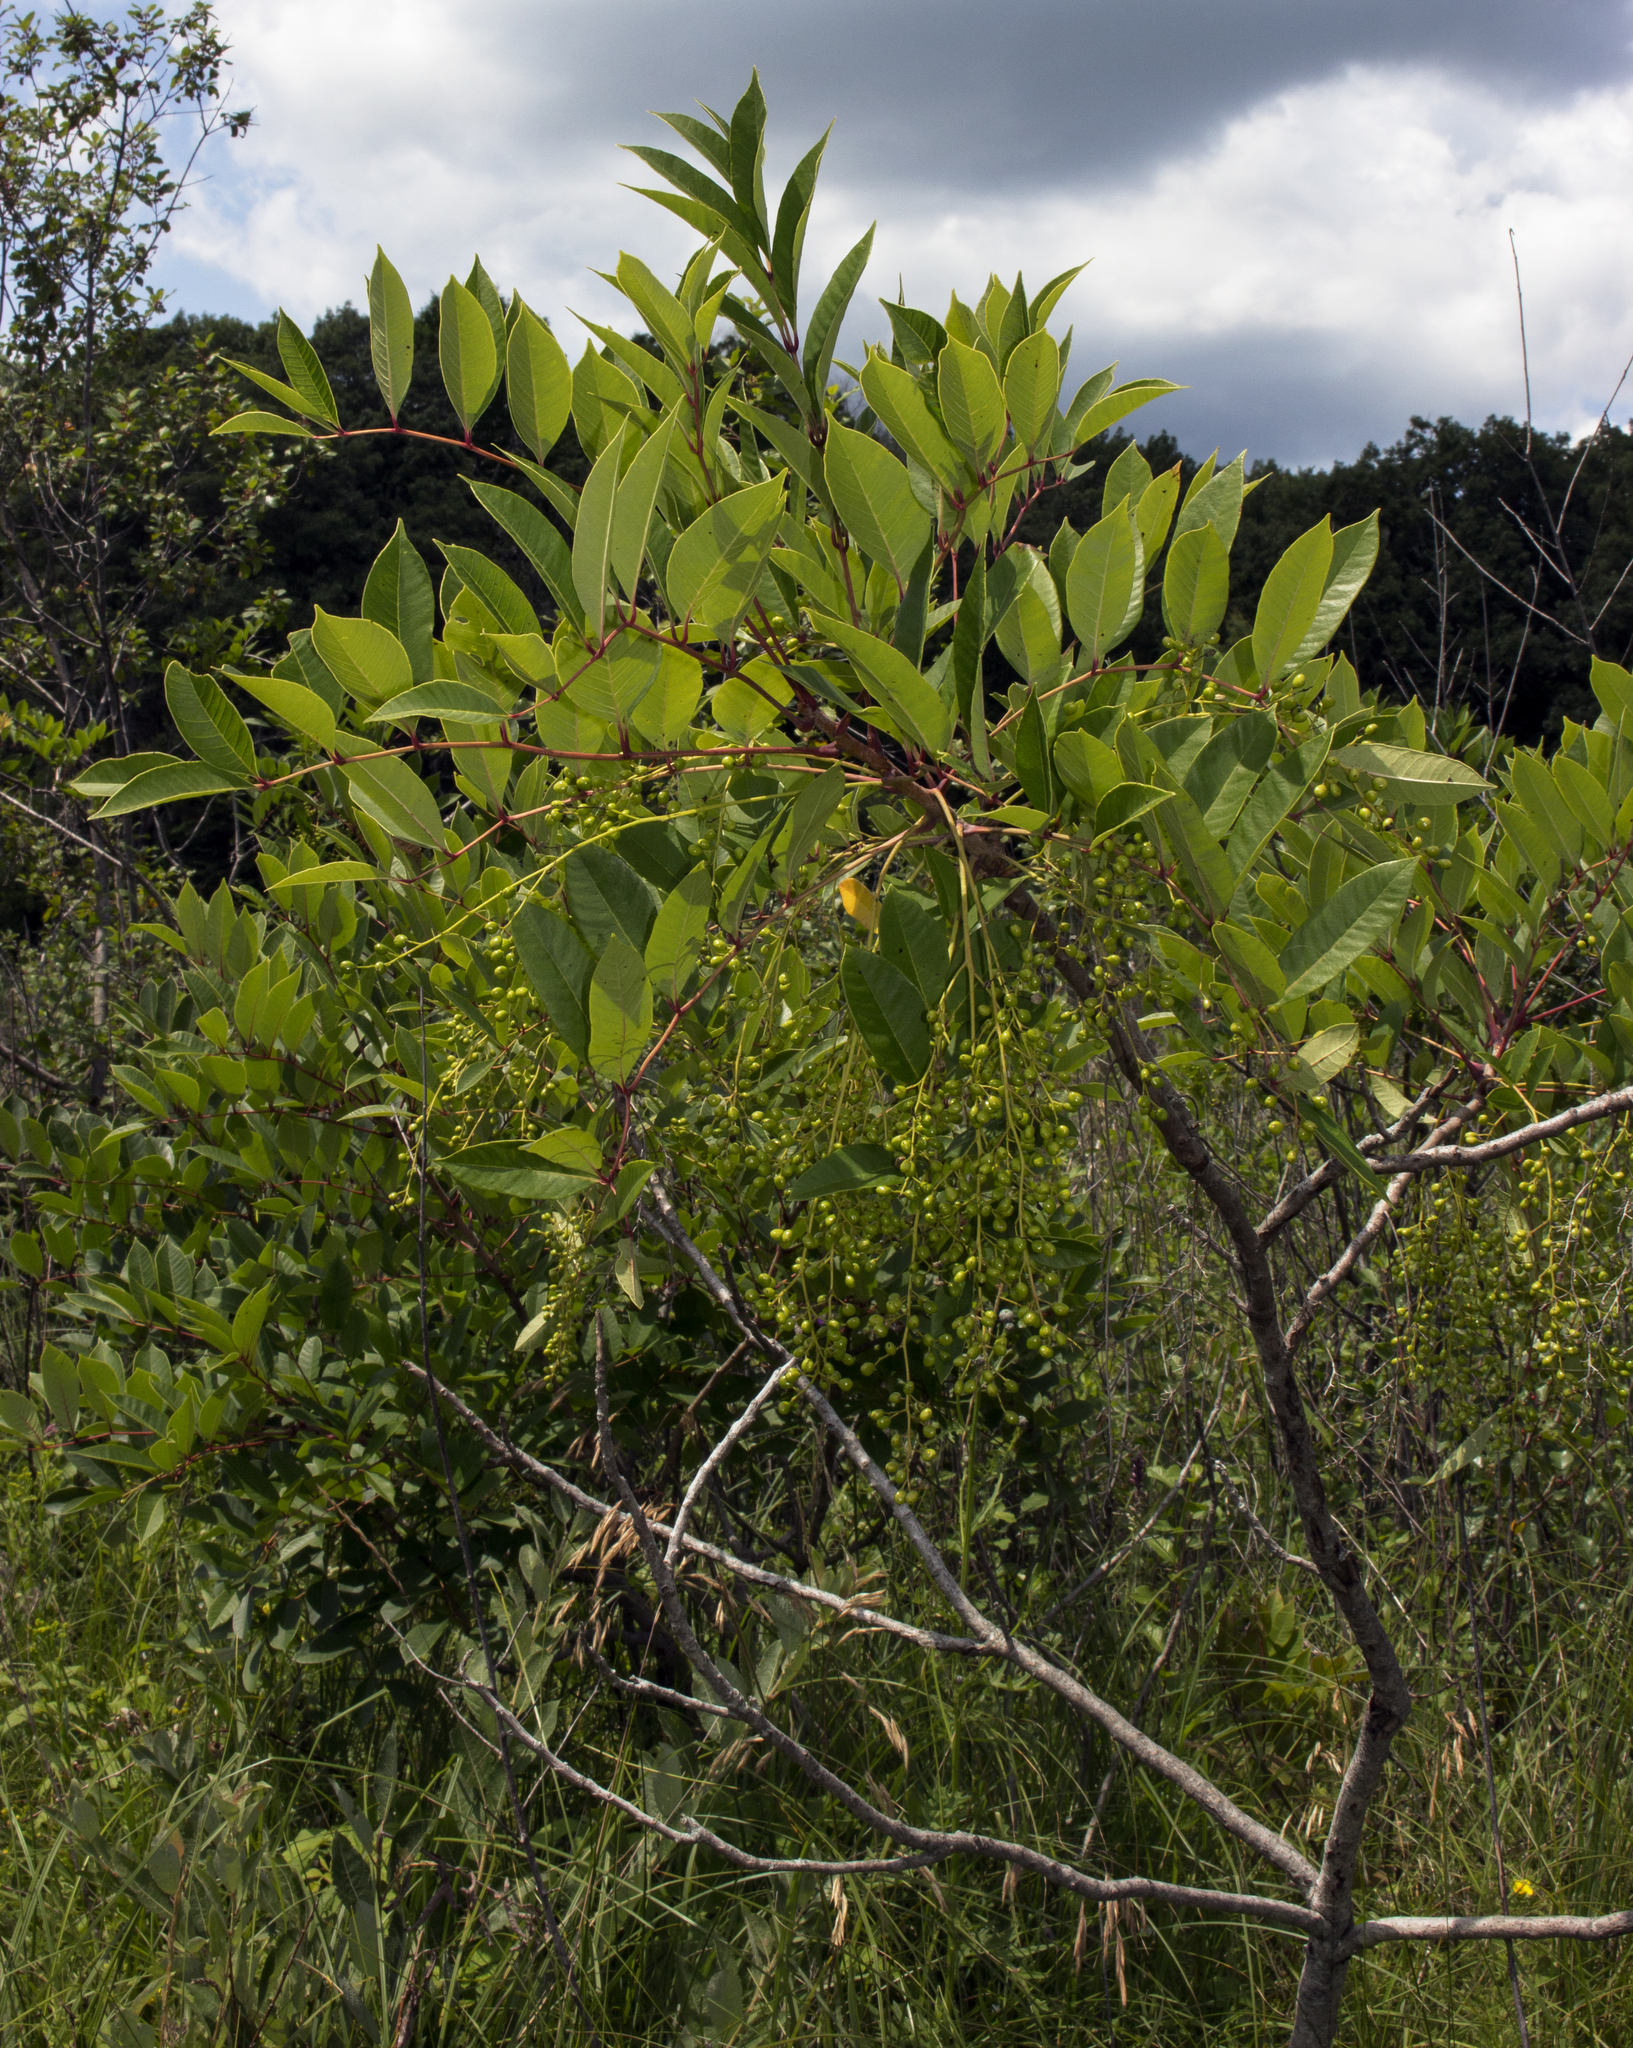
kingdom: Plantae
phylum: Tracheophyta
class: Magnoliopsida
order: Sapindales
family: Anacardiaceae
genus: Toxicodendron
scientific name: Toxicodendron vernix
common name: Poison sumac
